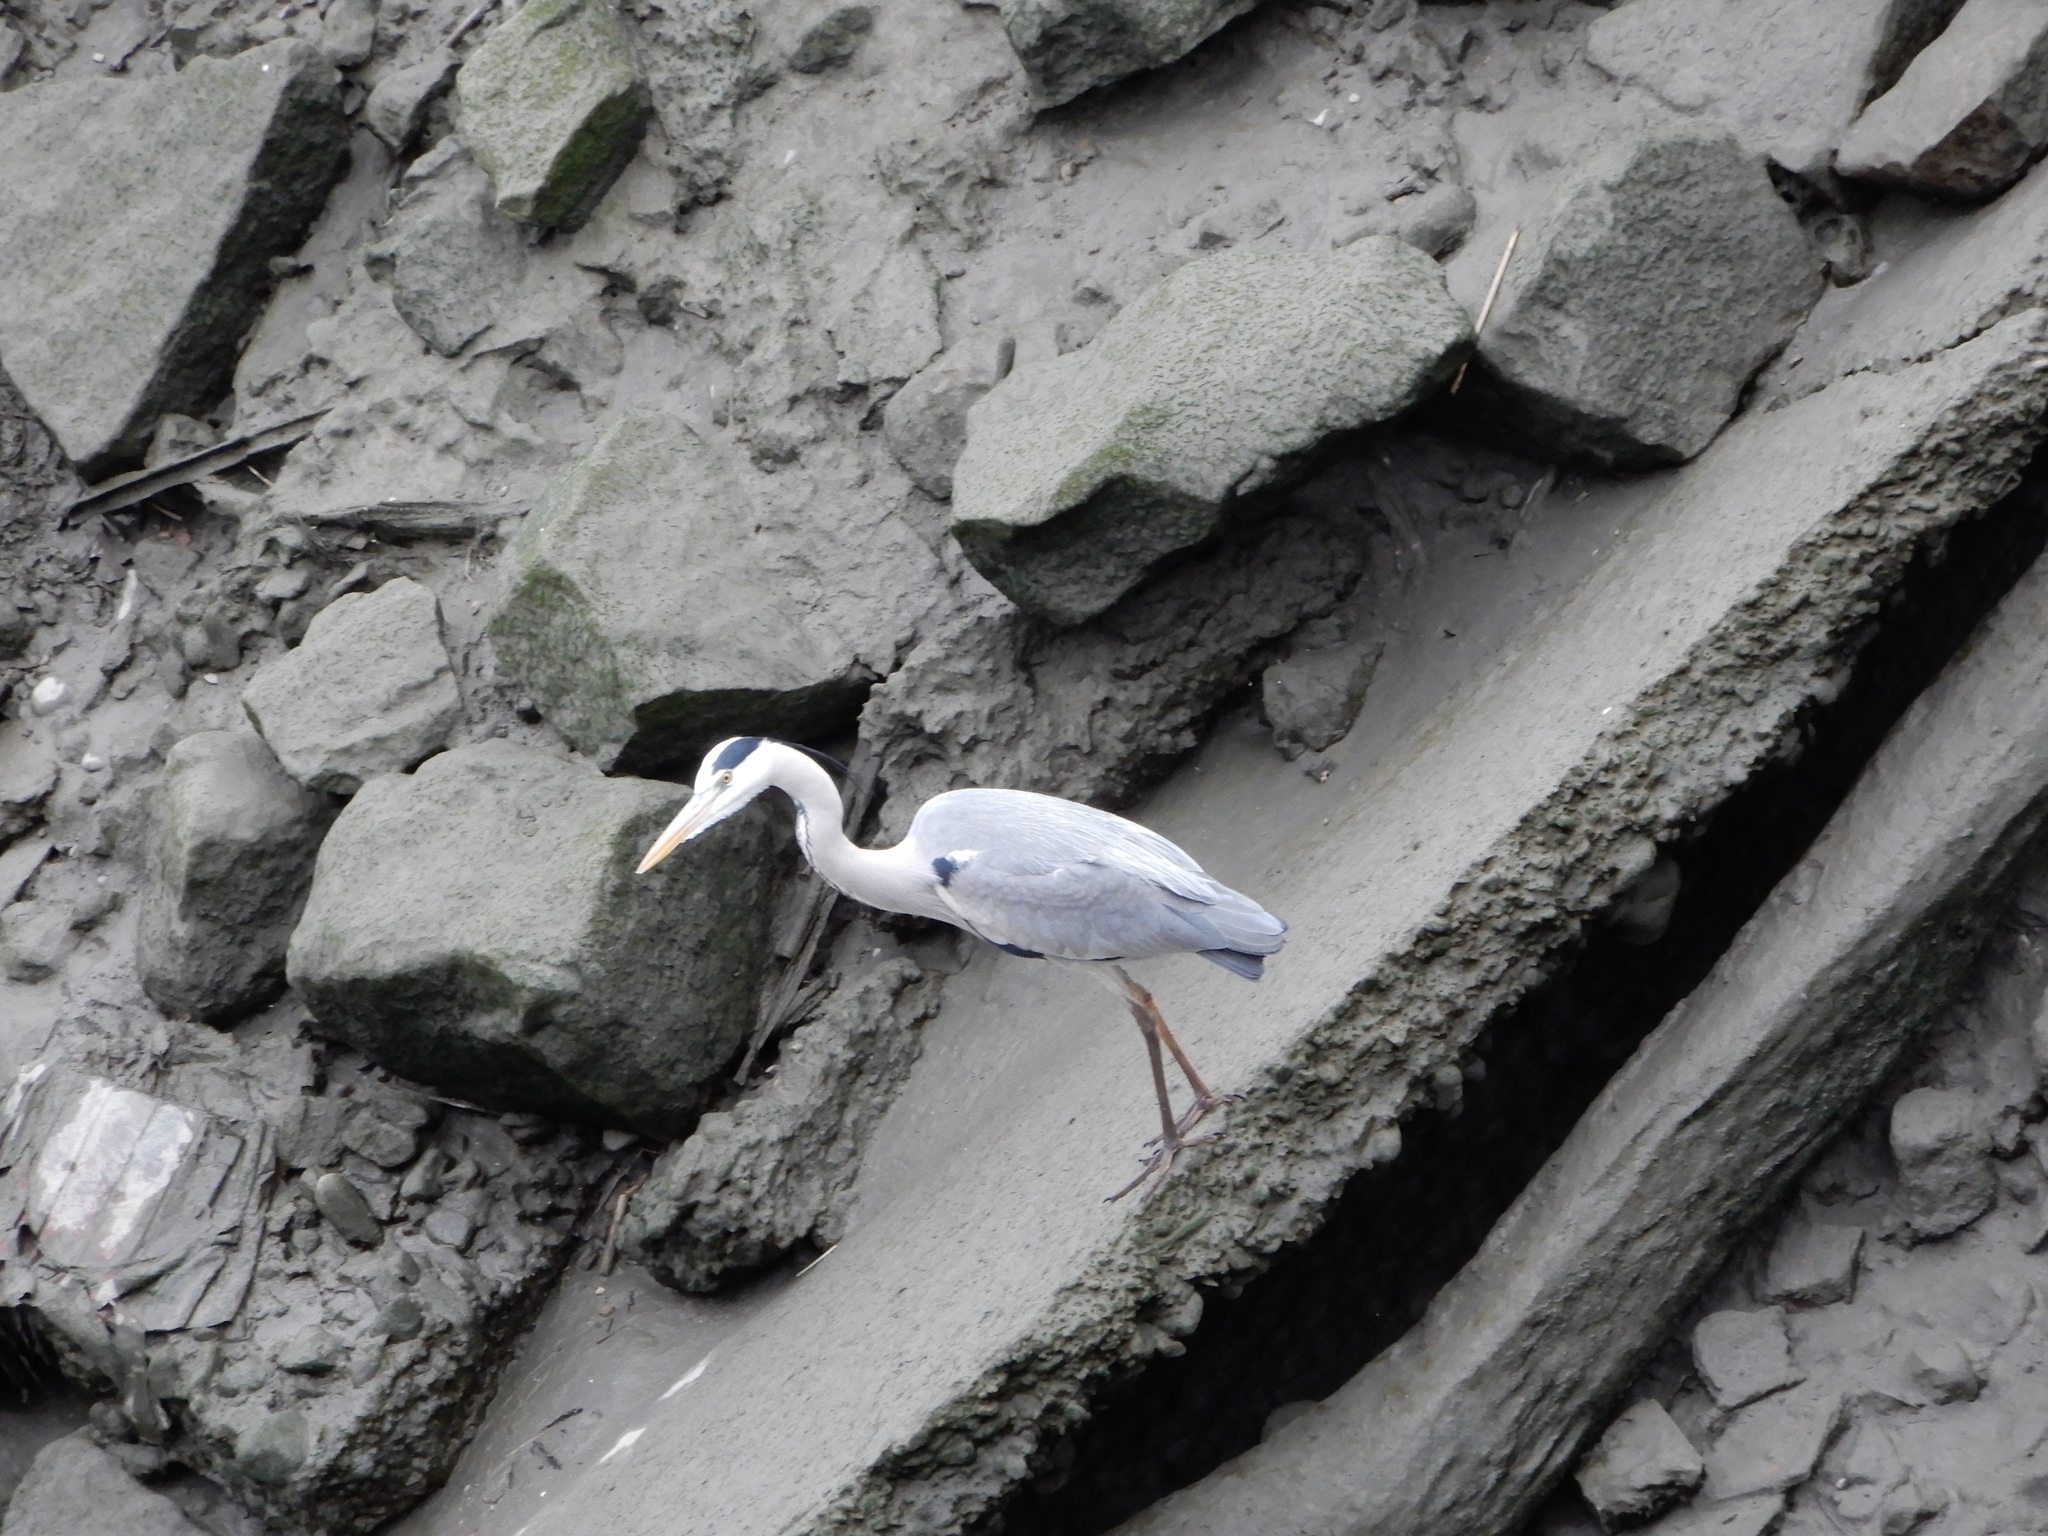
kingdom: Animalia
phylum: Chordata
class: Aves
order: Pelecaniformes
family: Ardeidae
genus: Ardea
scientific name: Ardea cinerea
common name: Grey heron
